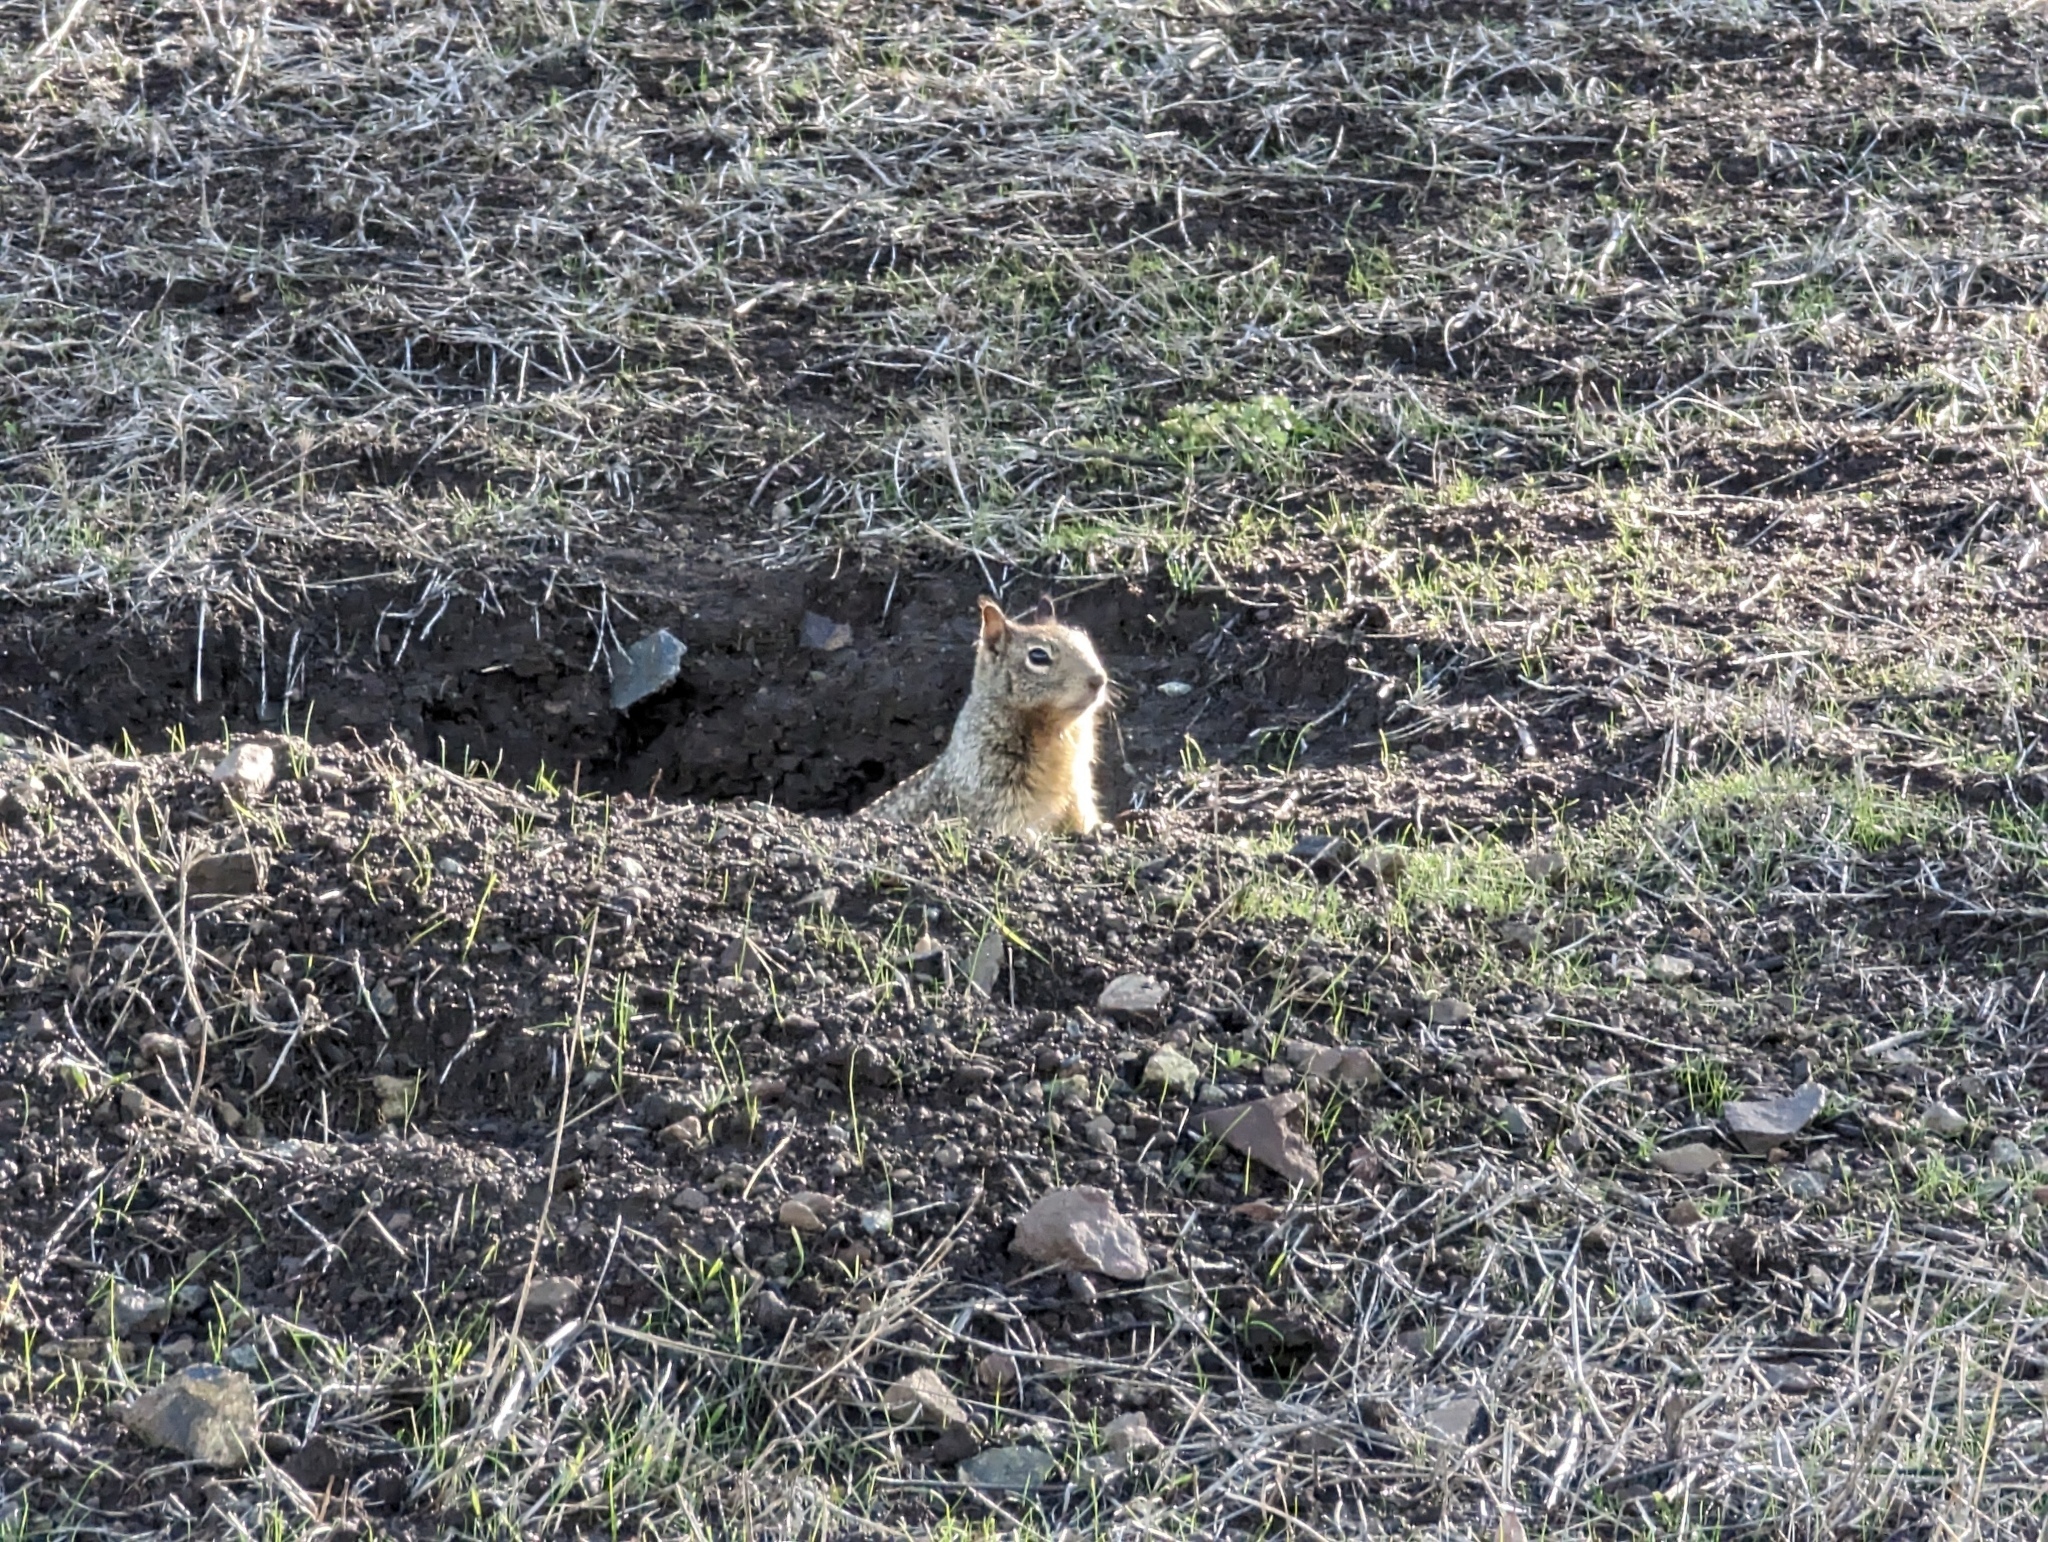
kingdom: Animalia
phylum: Chordata
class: Mammalia
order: Rodentia
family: Sciuridae
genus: Otospermophilus
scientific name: Otospermophilus beecheyi
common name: California ground squirrel
